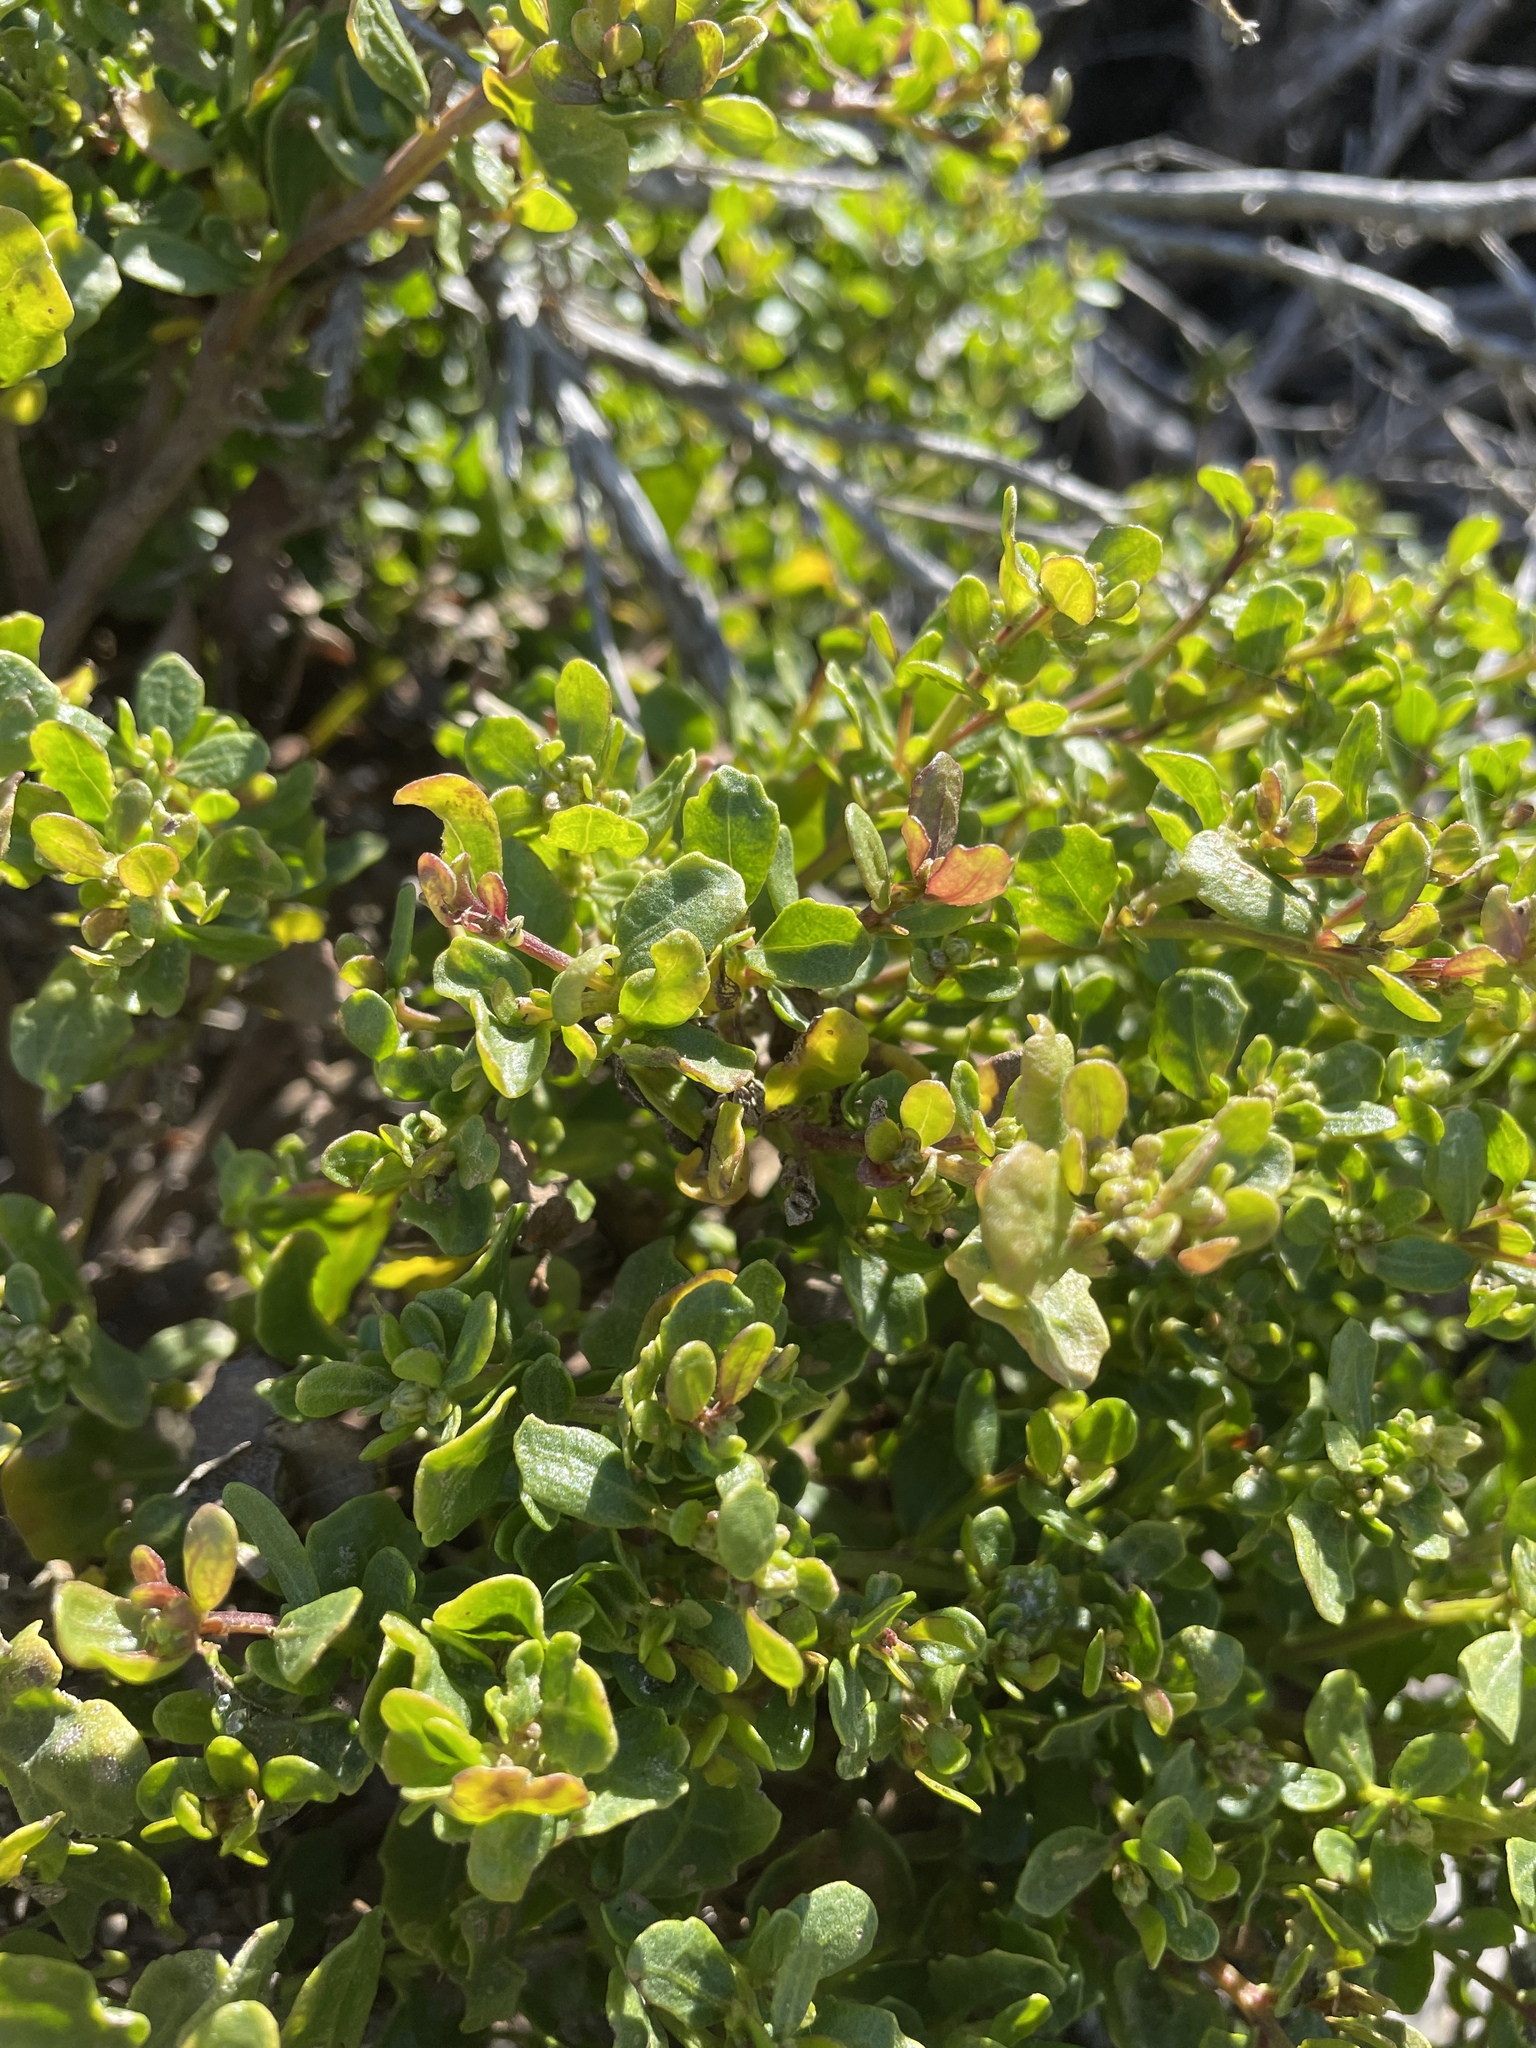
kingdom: Plantae
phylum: Tracheophyta
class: Magnoliopsida
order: Asterales
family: Asteraceae
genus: Baccharis
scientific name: Baccharis pilularis
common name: Coyotebrush
